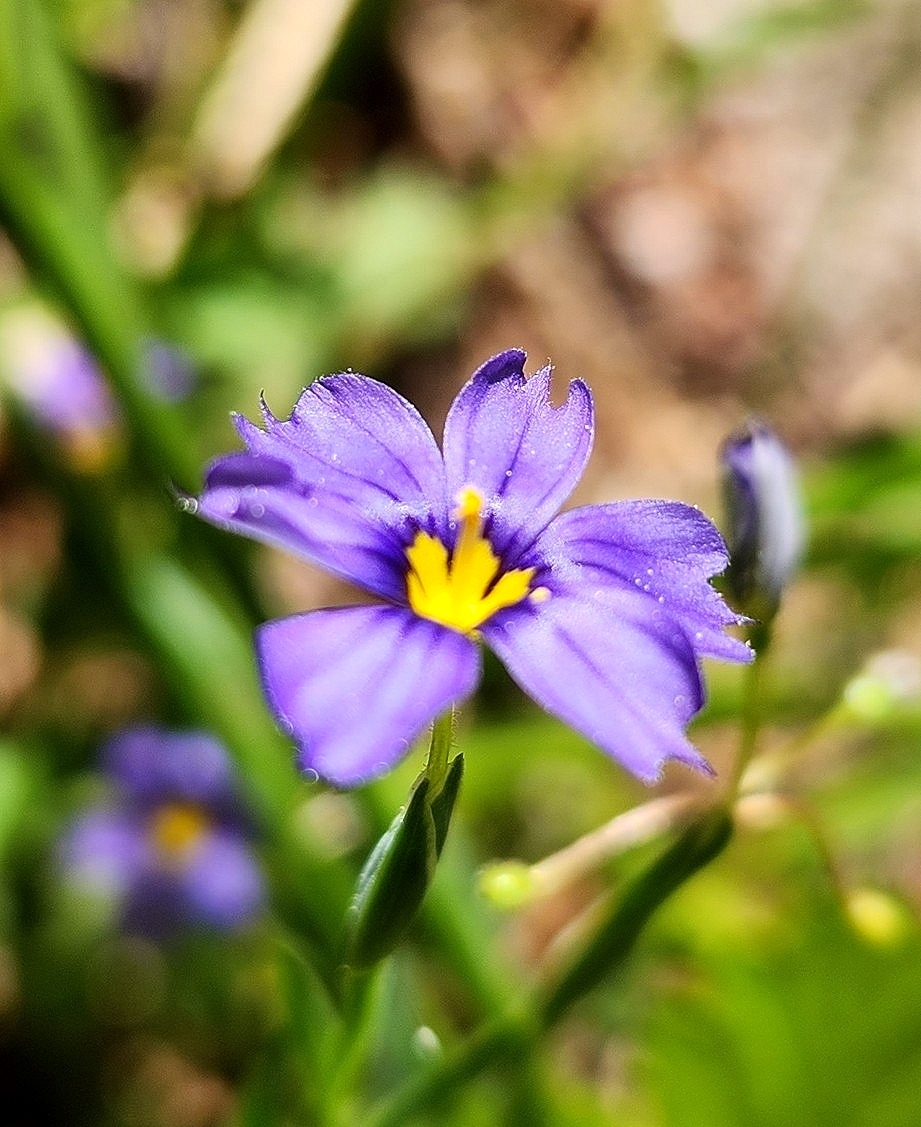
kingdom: Plantae
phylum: Tracheophyta
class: Liliopsida
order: Asparagales
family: Iridaceae
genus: Sisyrinchium
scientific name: Sisyrinchium bellum
